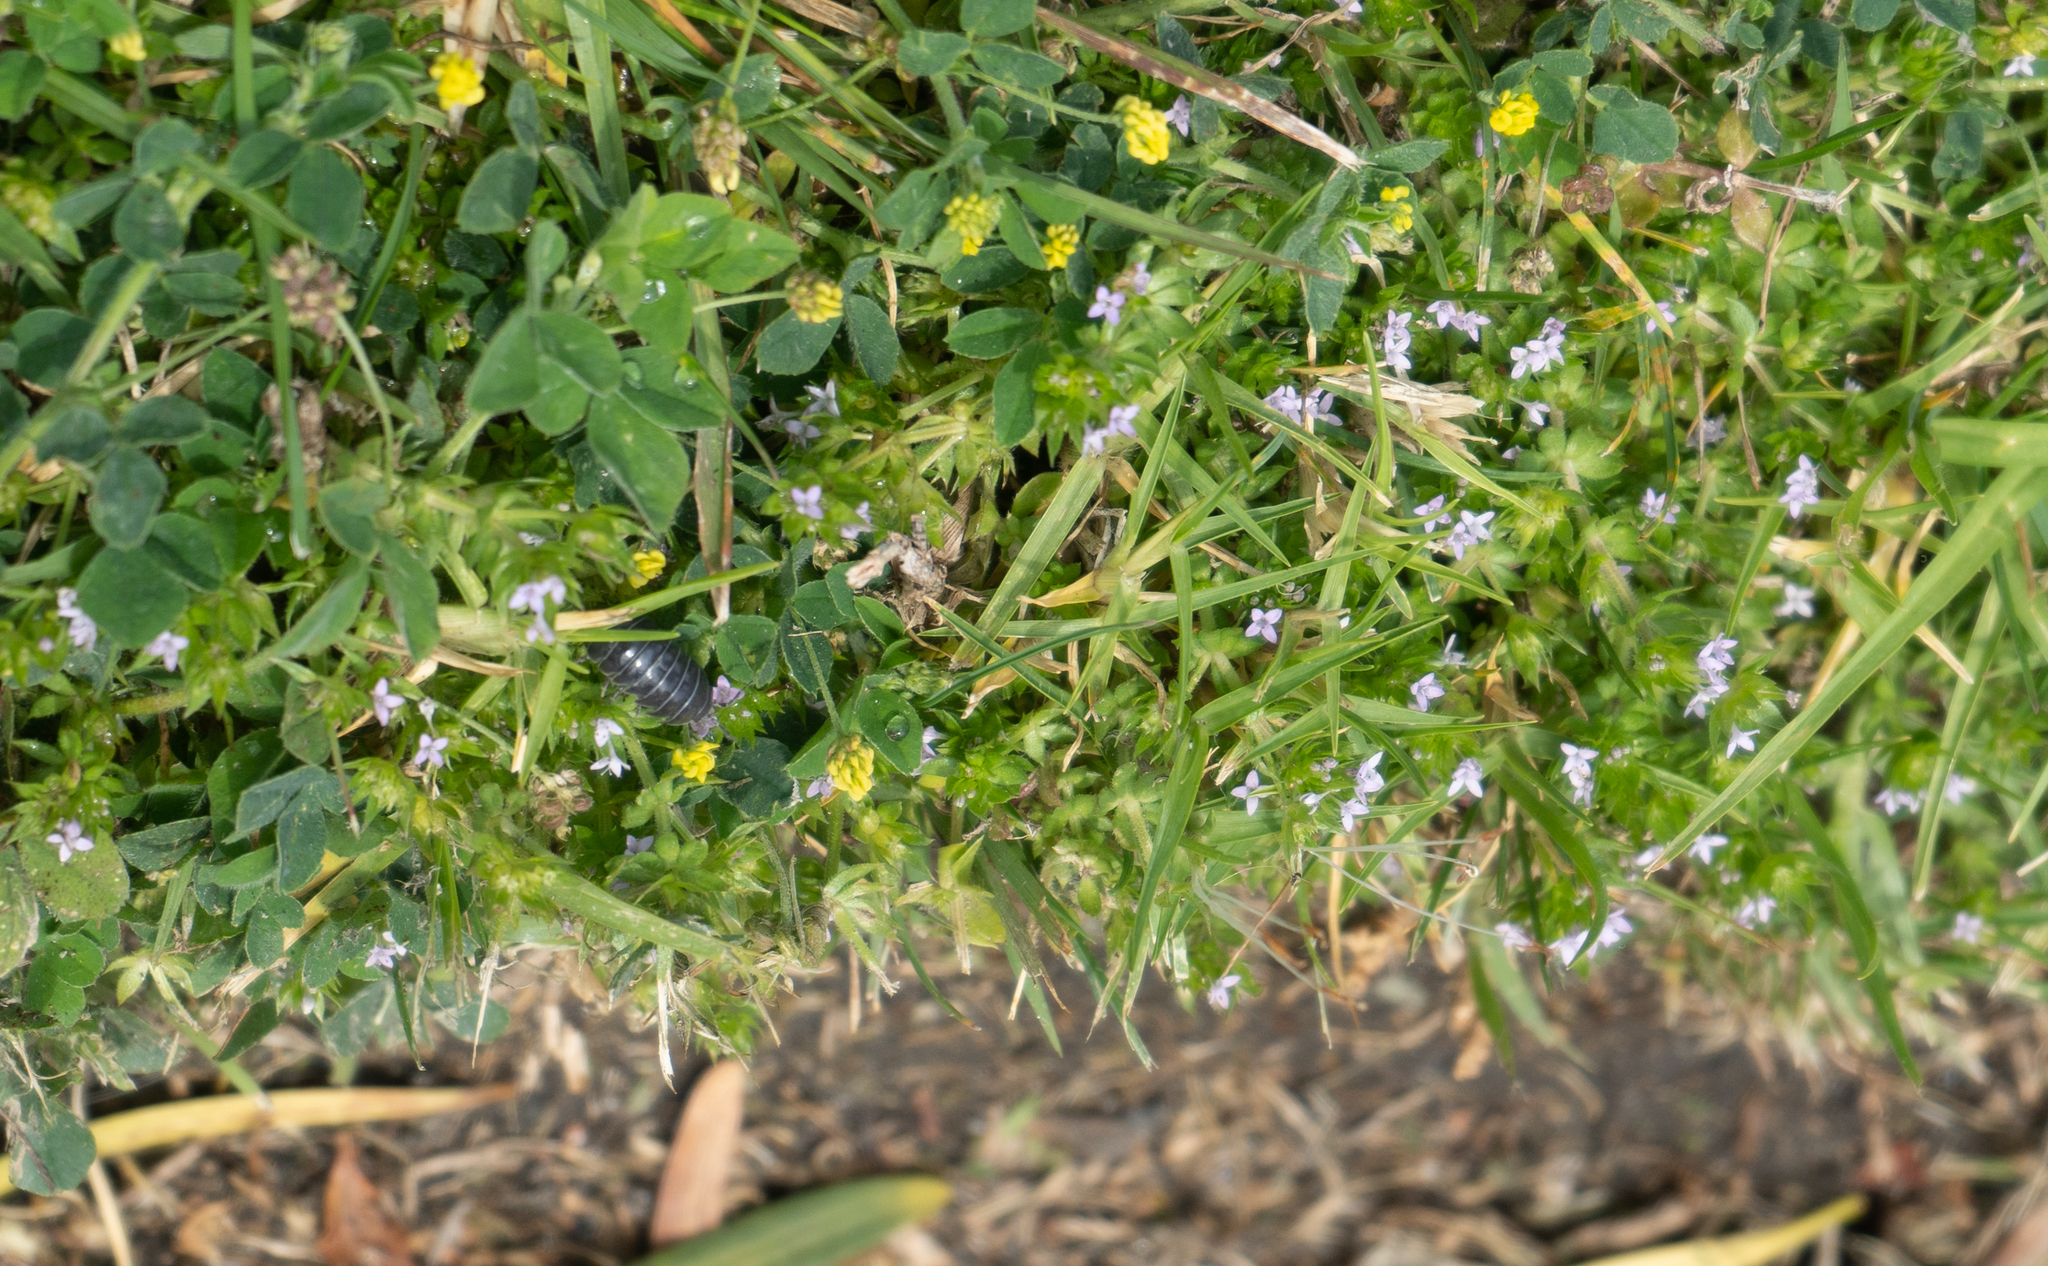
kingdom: Plantae
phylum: Tracheophyta
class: Magnoliopsida
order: Gentianales
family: Rubiaceae
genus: Sherardia
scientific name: Sherardia arvensis
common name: Field madder
